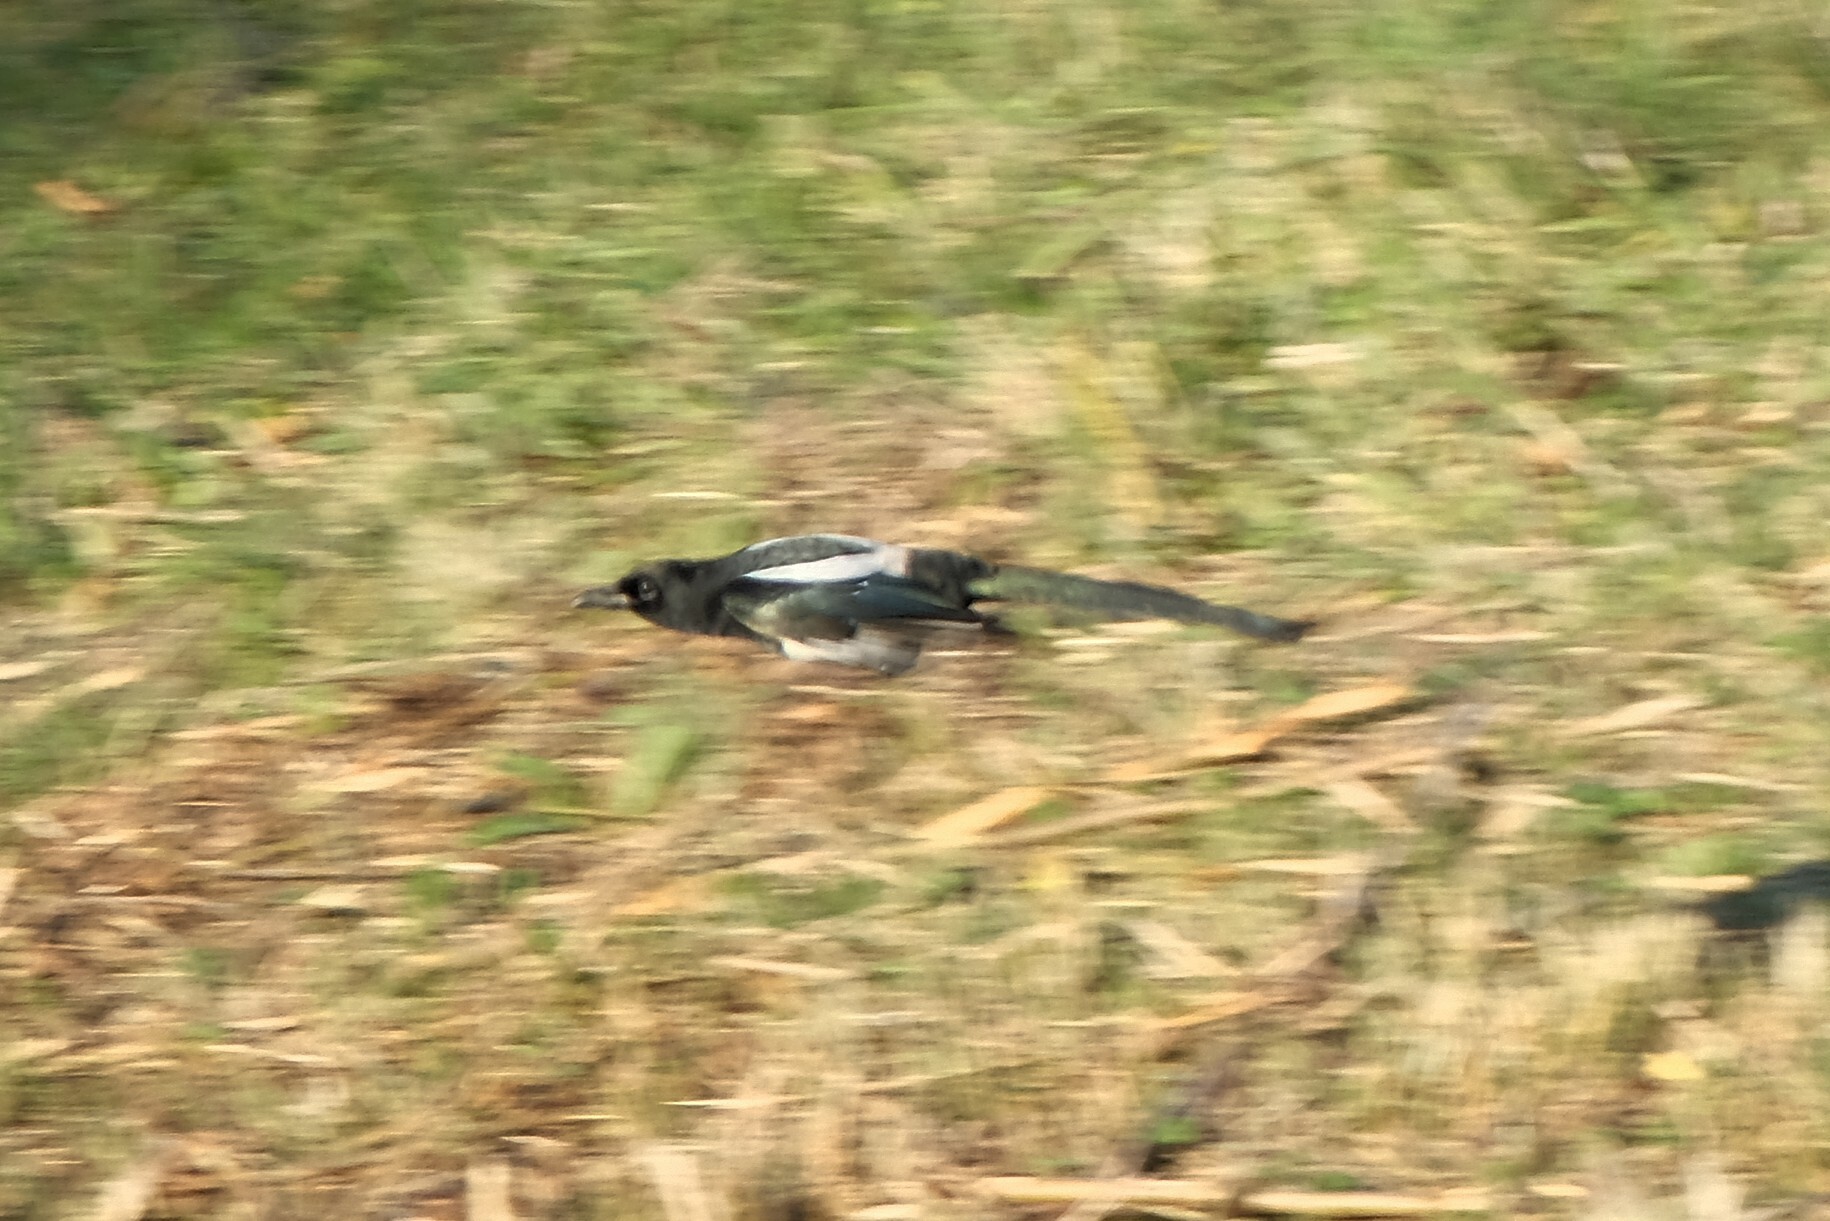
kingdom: Animalia
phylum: Chordata
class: Aves
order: Passeriformes
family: Corvidae
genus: Pica
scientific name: Pica pica
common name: Eurasian magpie
